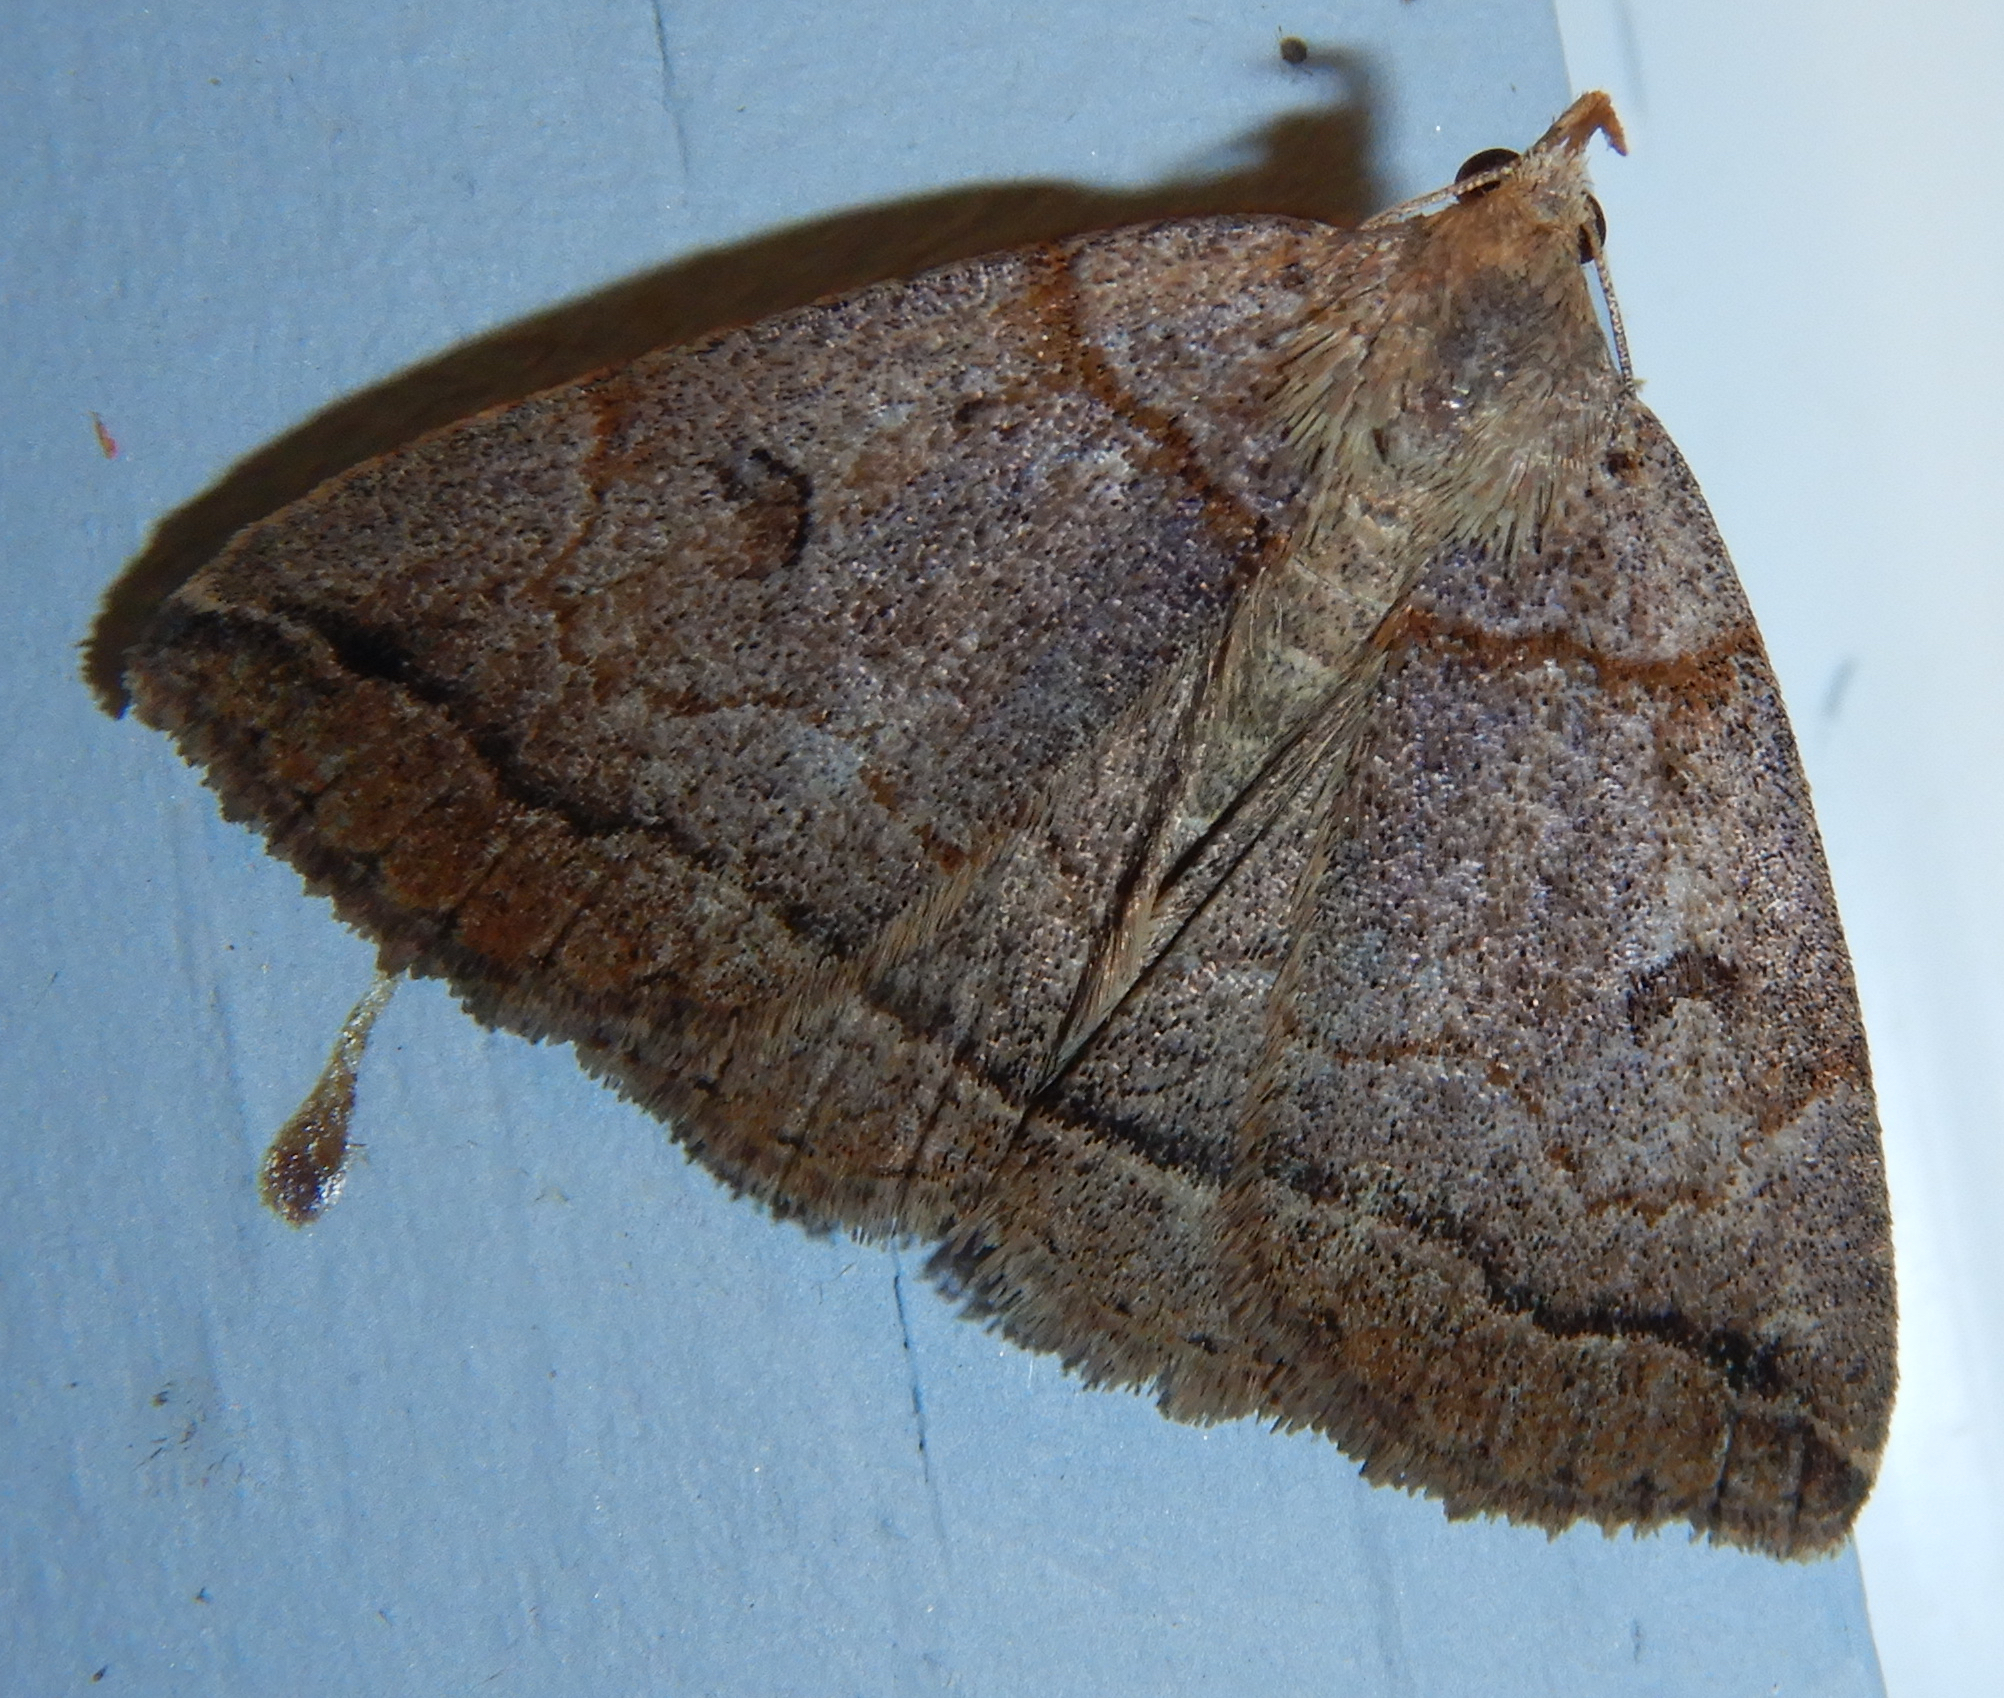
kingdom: Animalia
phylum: Arthropoda
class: Insecta
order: Lepidoptera
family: Erebidae
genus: Zanclognatha
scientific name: Zanclognatha laevigata
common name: Variable fan-foot
